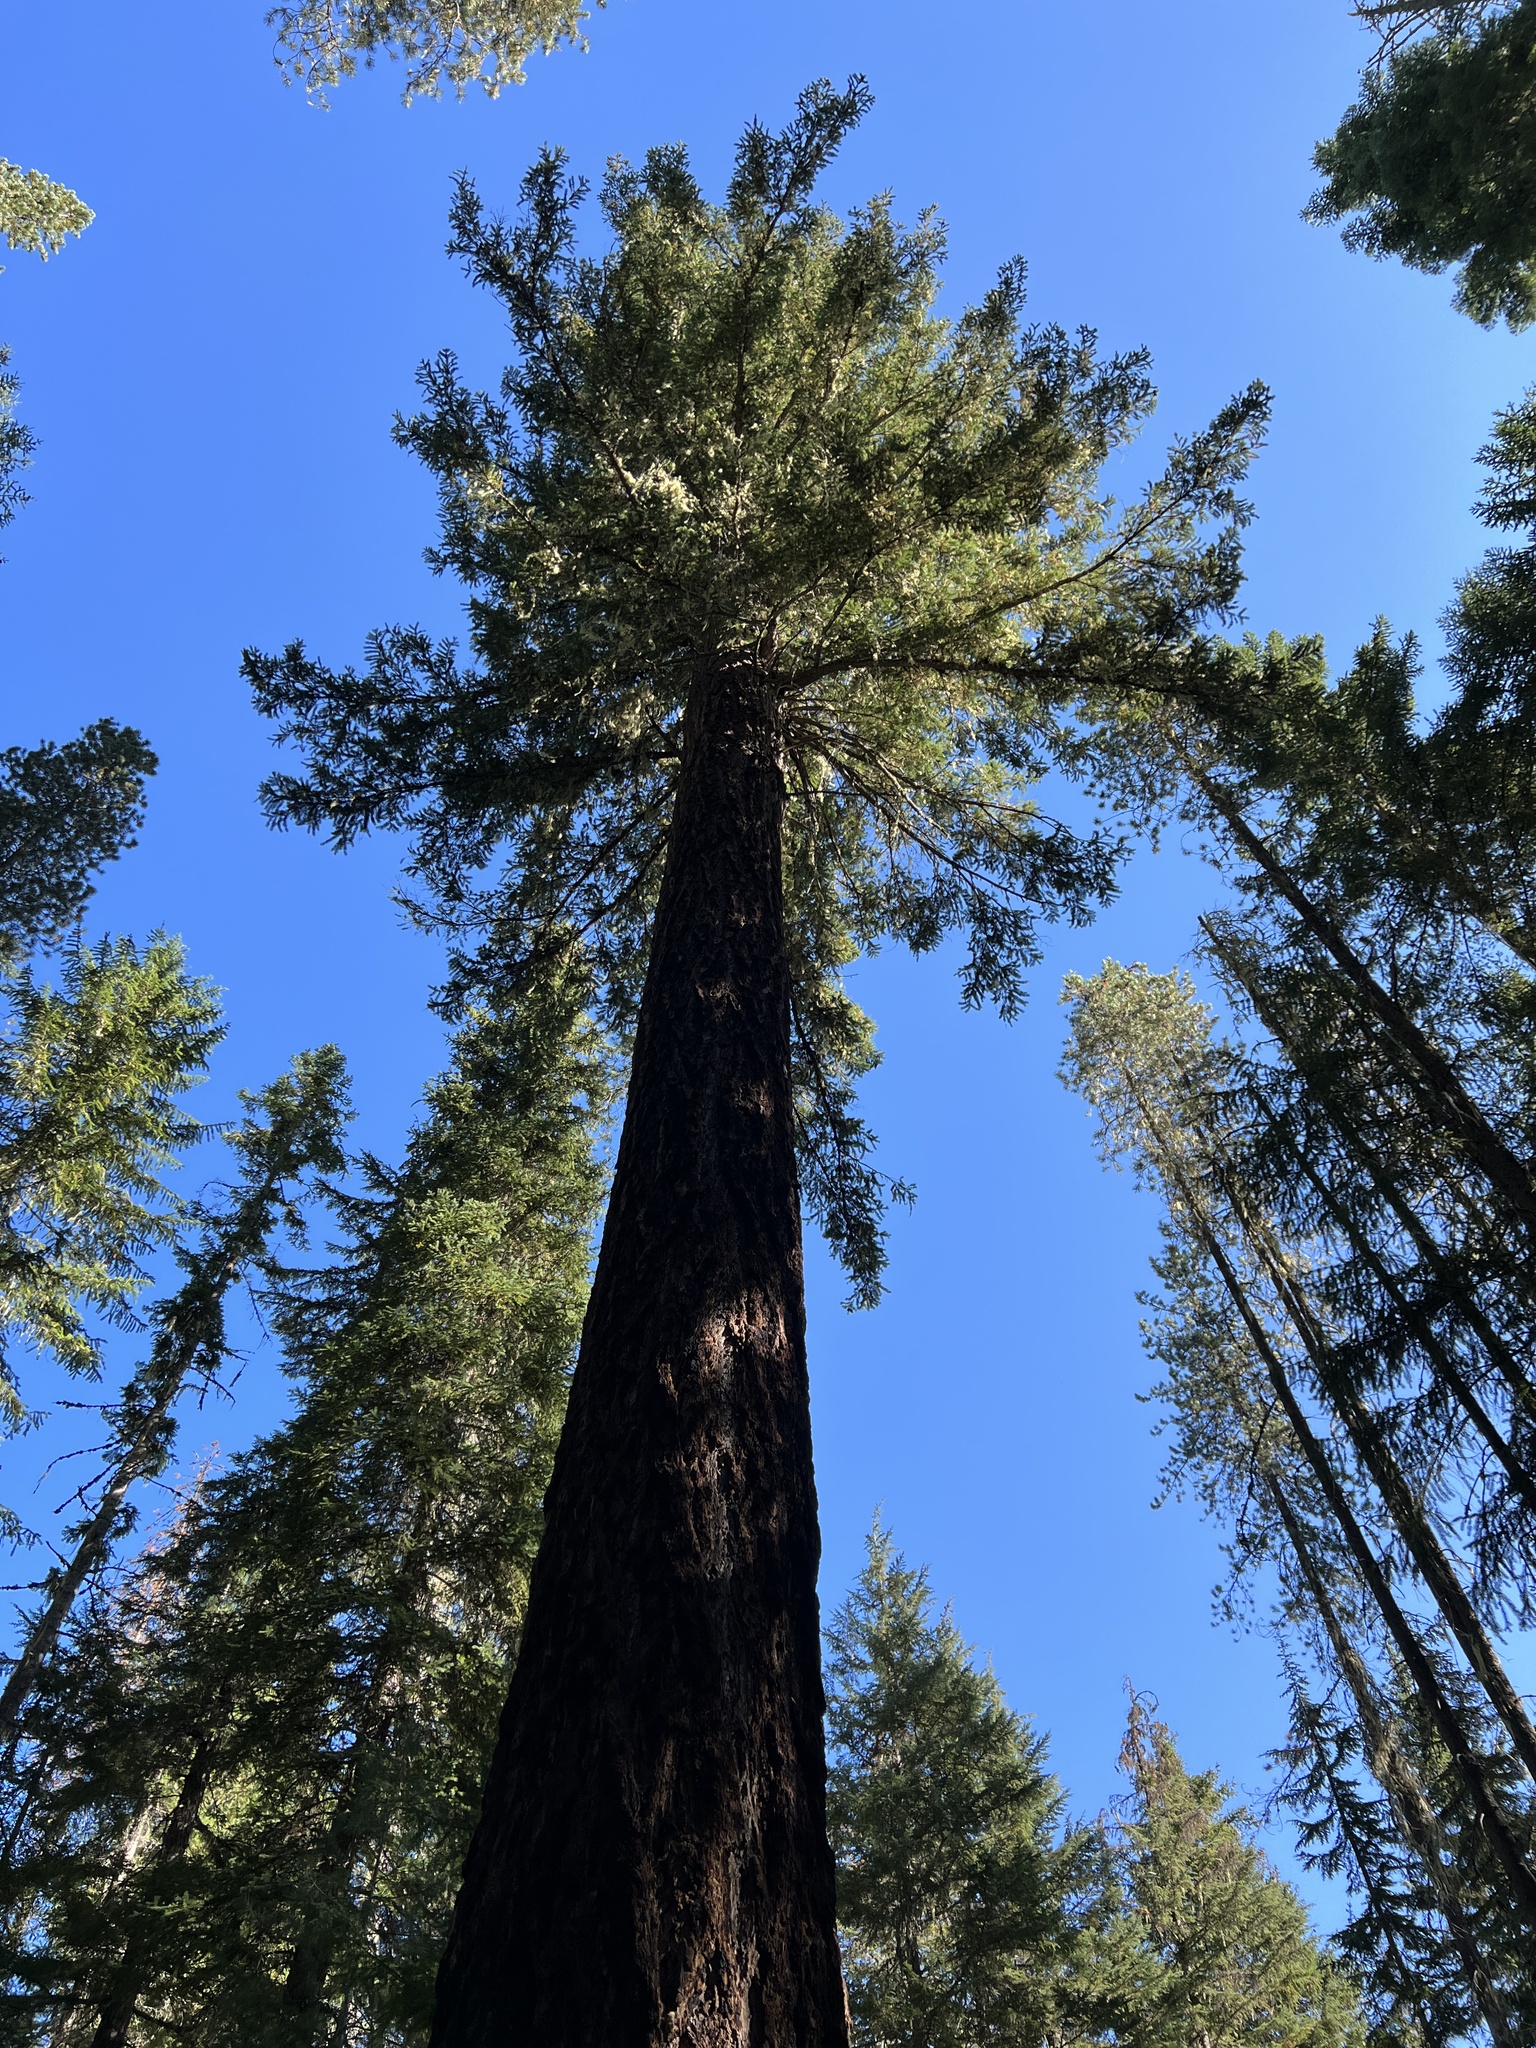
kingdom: Plantae
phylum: Tracheophyta
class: Pinopsida
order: Pinales
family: Pinaceae
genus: Pseudotsuga
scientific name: Pseudotsuga menziesii
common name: Douglas fir
